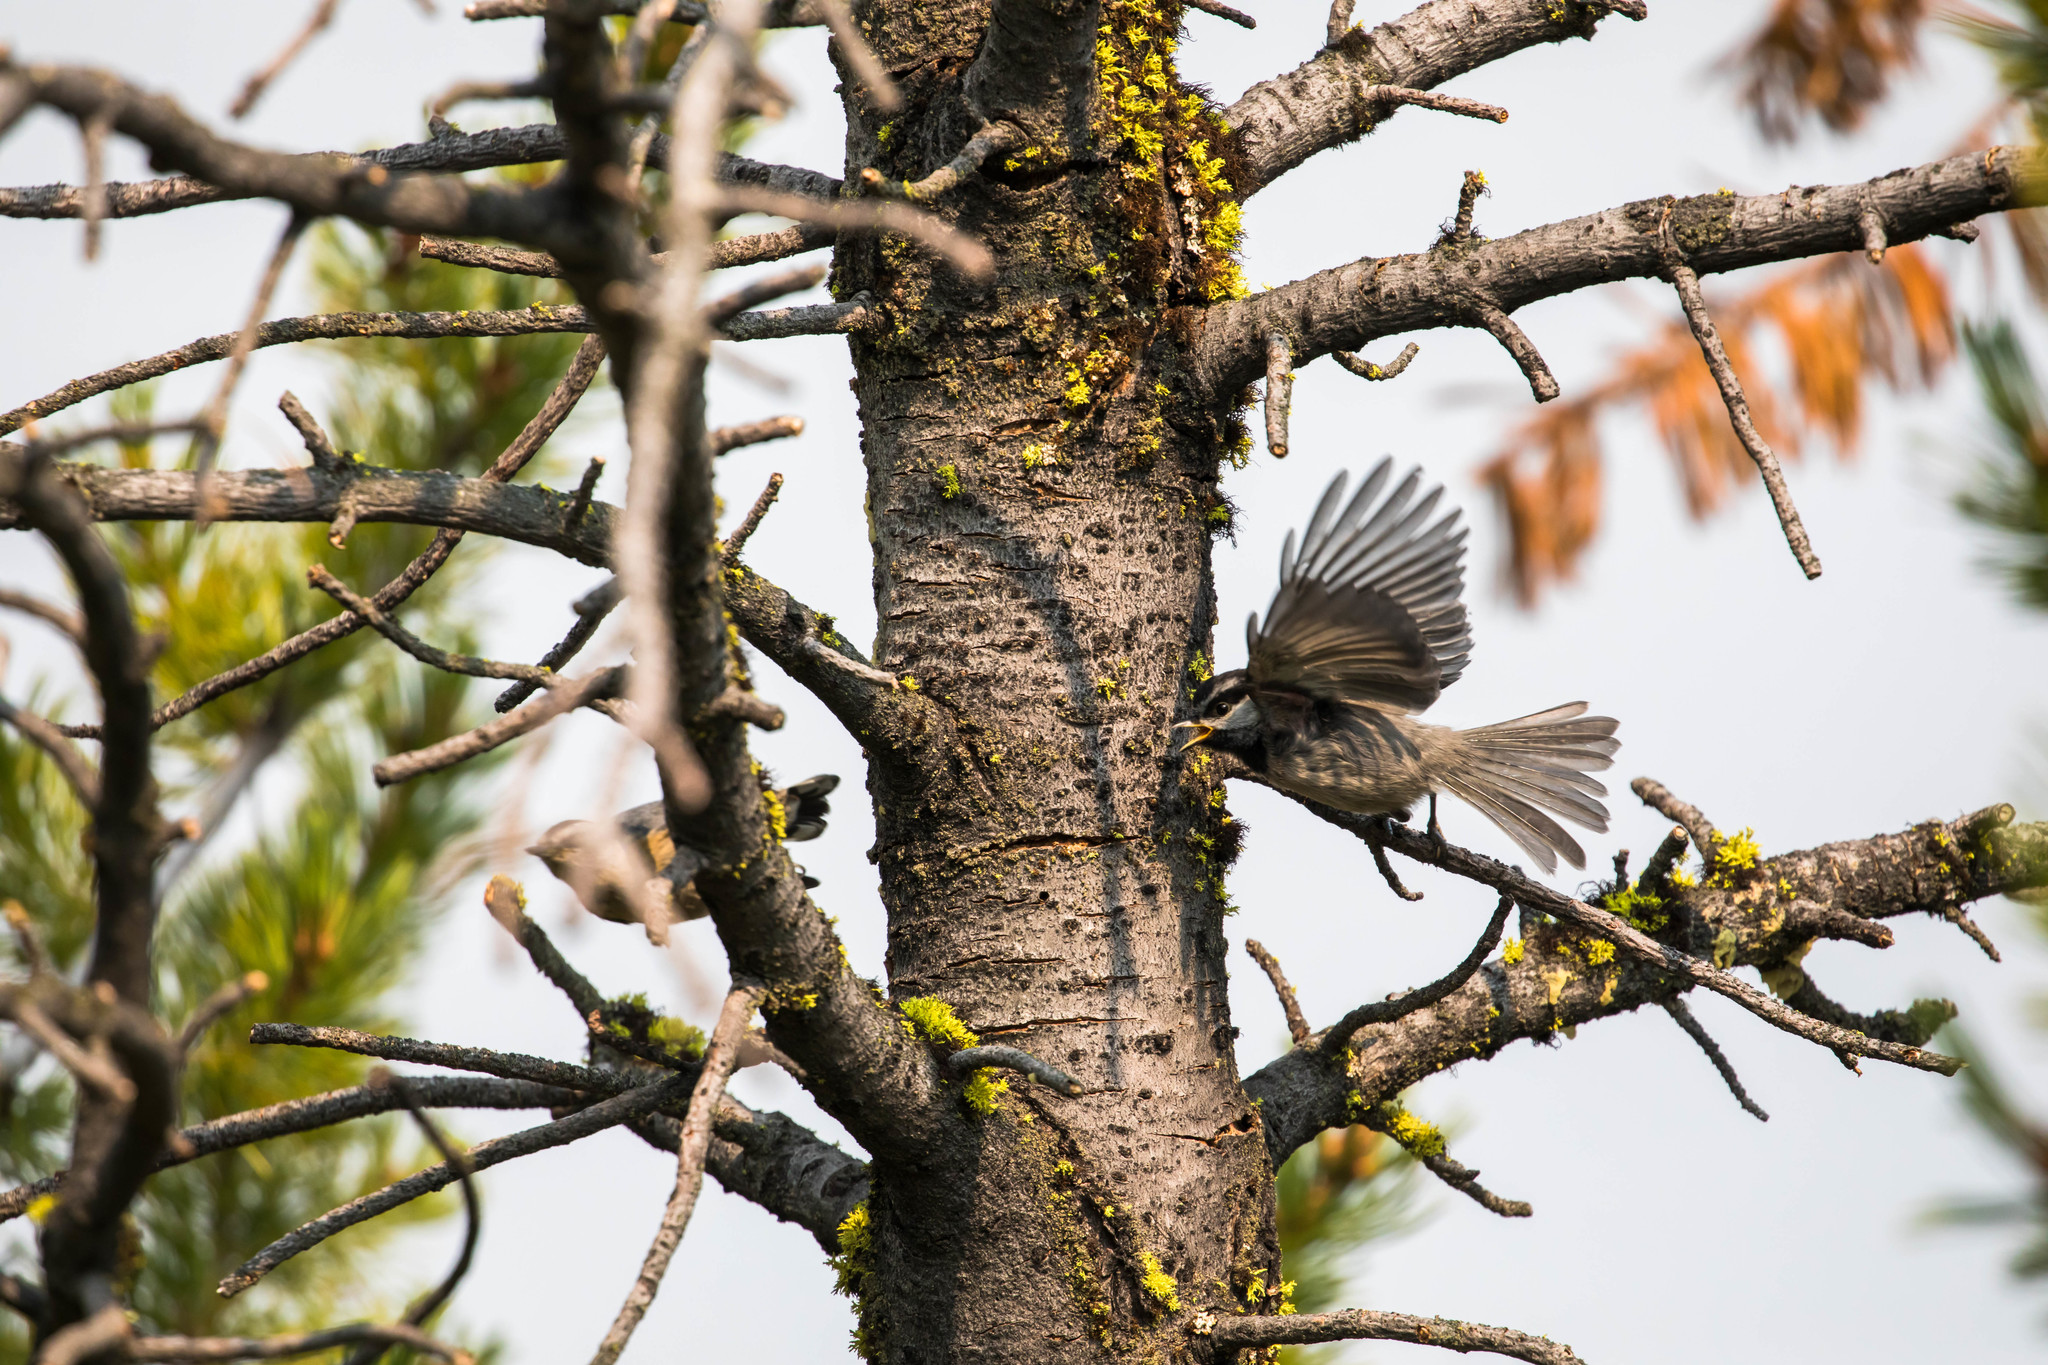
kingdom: Animalia
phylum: Chordata
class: Aves
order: Passeriformes
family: Paridae
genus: Poecile
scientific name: Poecile gambeli
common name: Mountain chickadee
